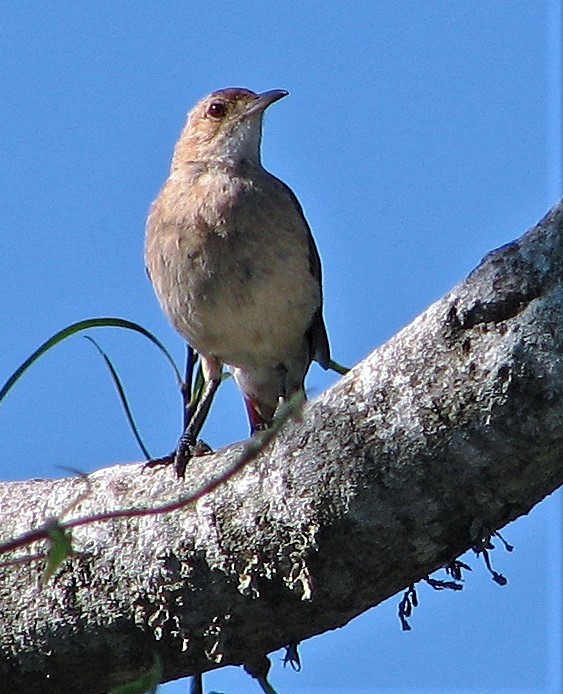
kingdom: Animalia
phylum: Chordata
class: Aves
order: Passeriformes
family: Furnariidae
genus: Furnarius
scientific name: Furnarius rufus
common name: Rufous hornero
